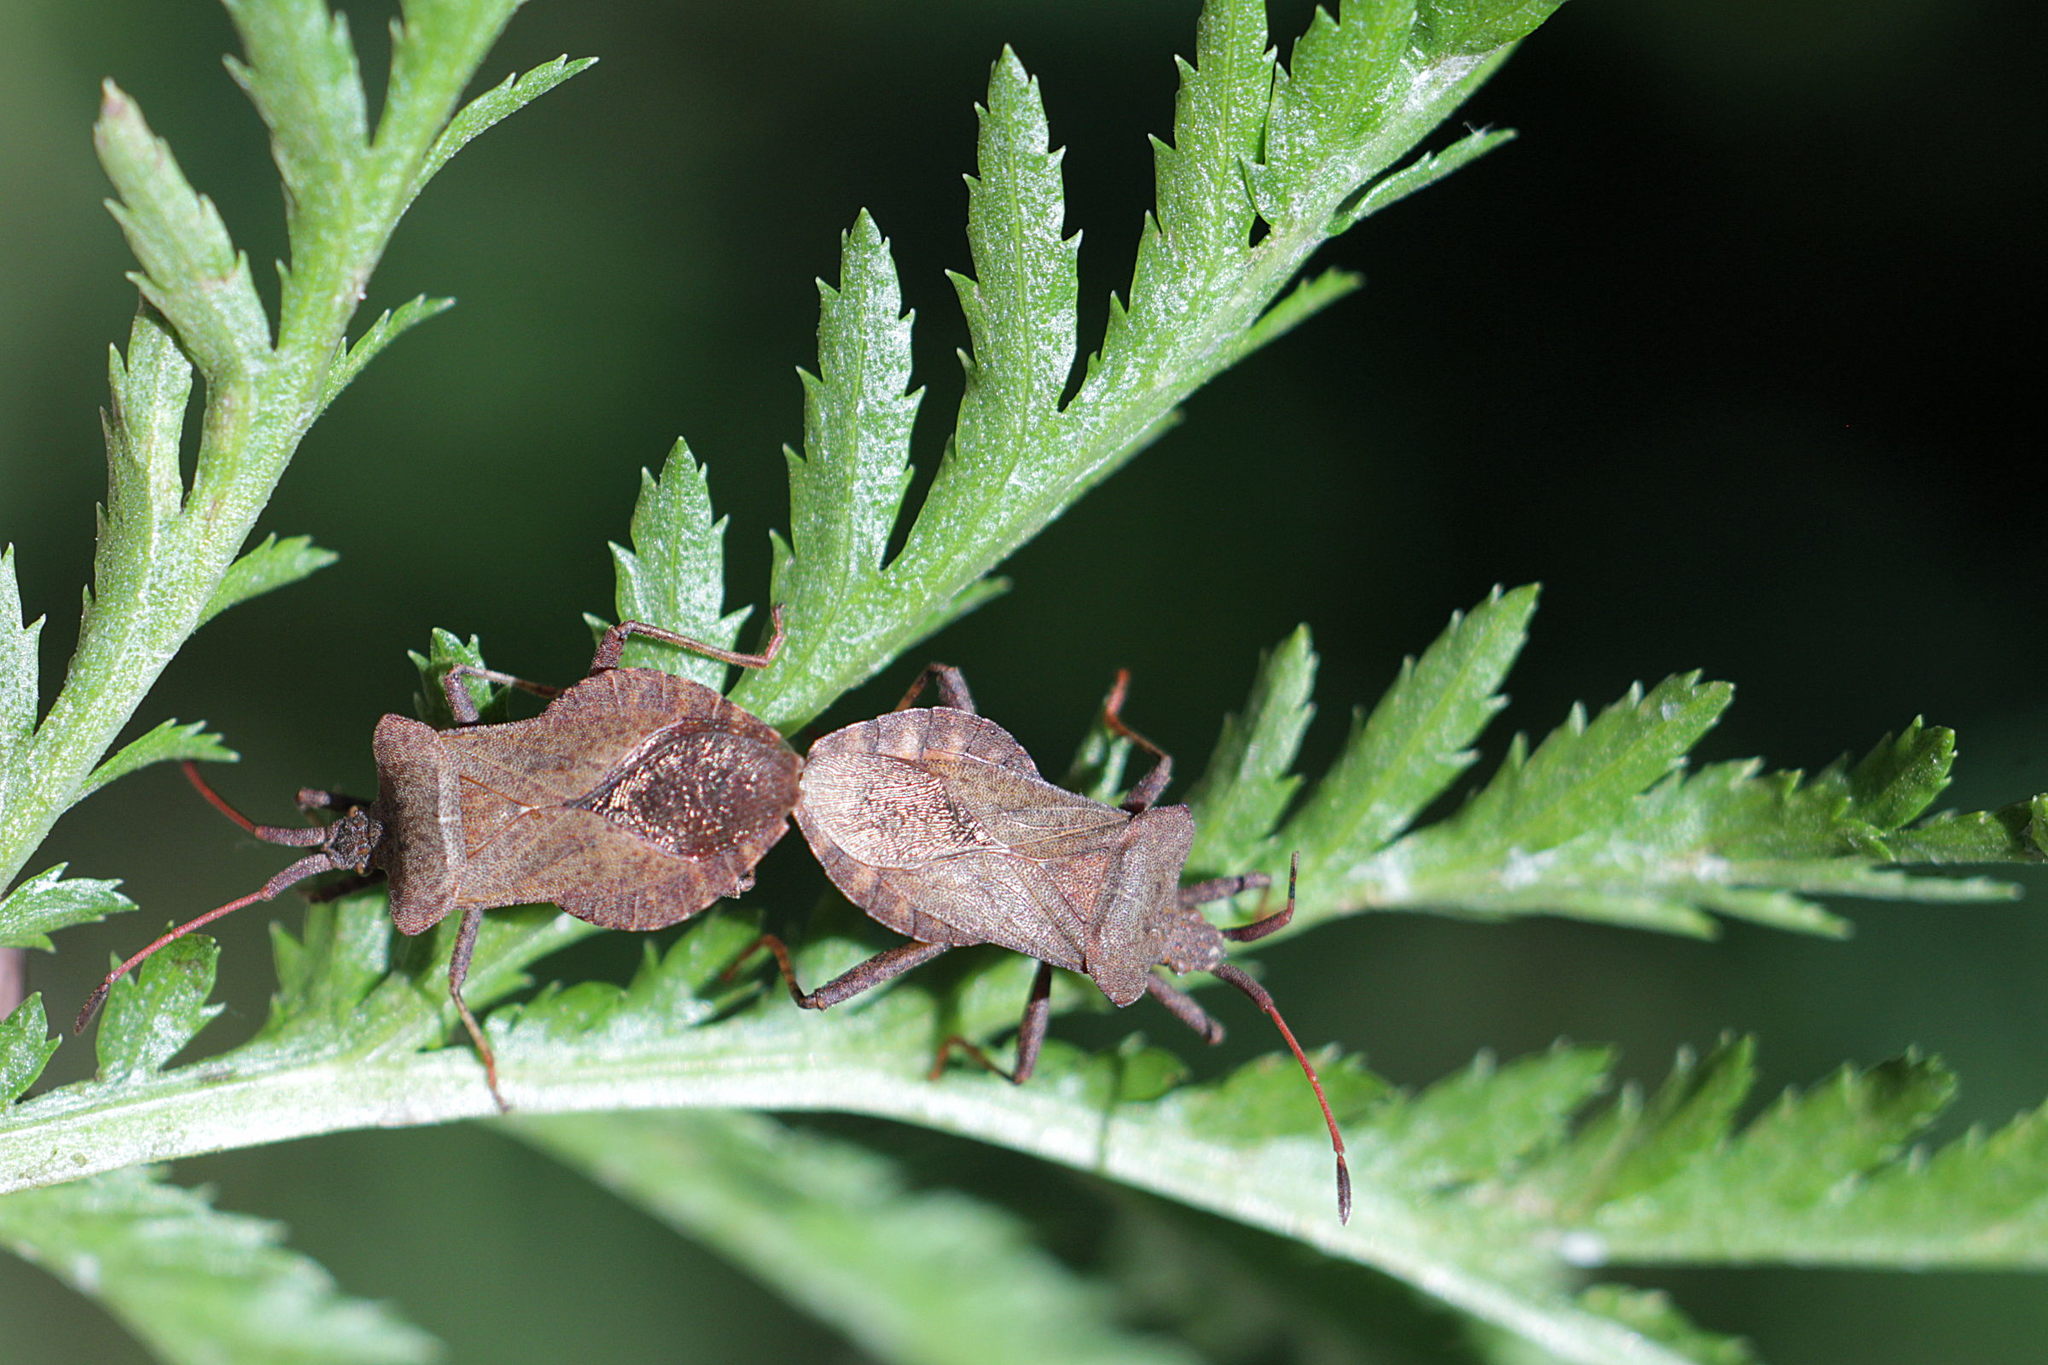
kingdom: Animalia
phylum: Arthropoda
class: Insecta
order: Hemiptera
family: Coreidae
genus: Coreus
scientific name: Coreus marginatus
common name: Dock bug
